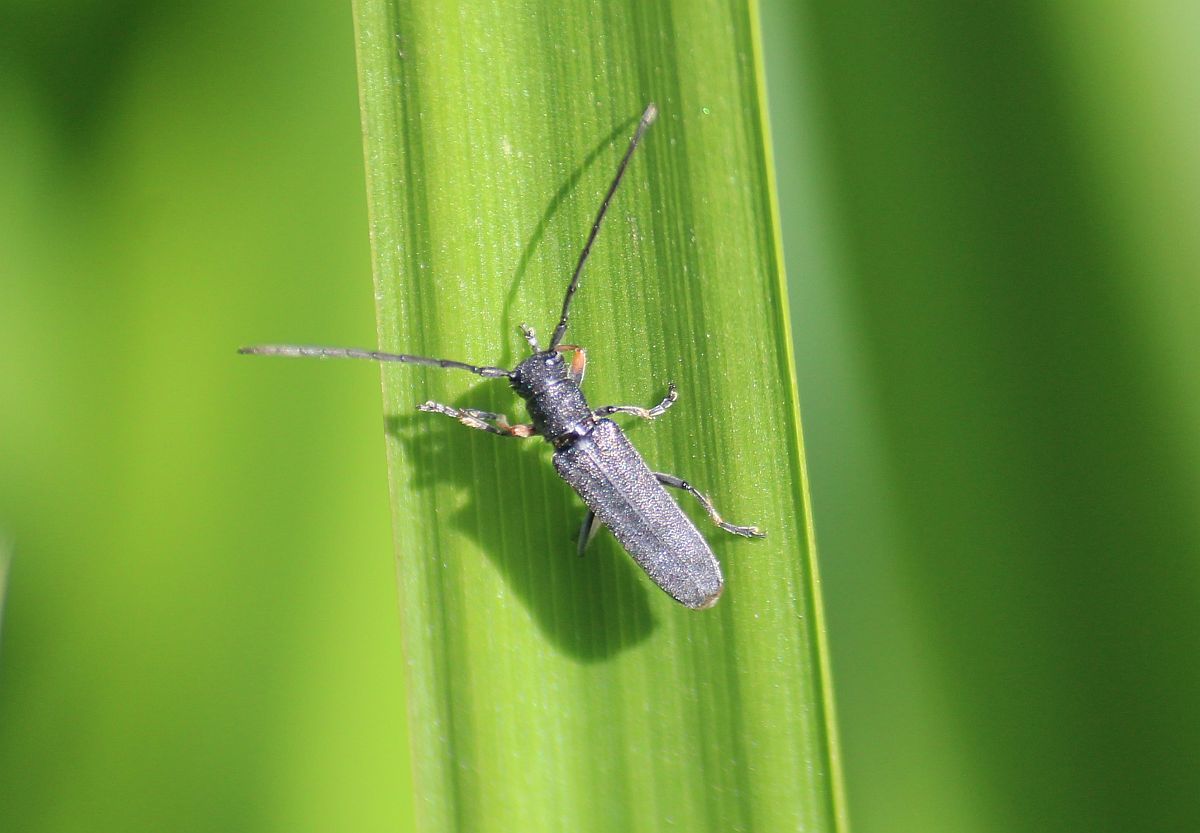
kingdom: Animalia
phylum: Arthropoda
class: Insecta
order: Coleoptera
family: Cerambycidae
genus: Phytoecia
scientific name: Phytoecia cylindrica
